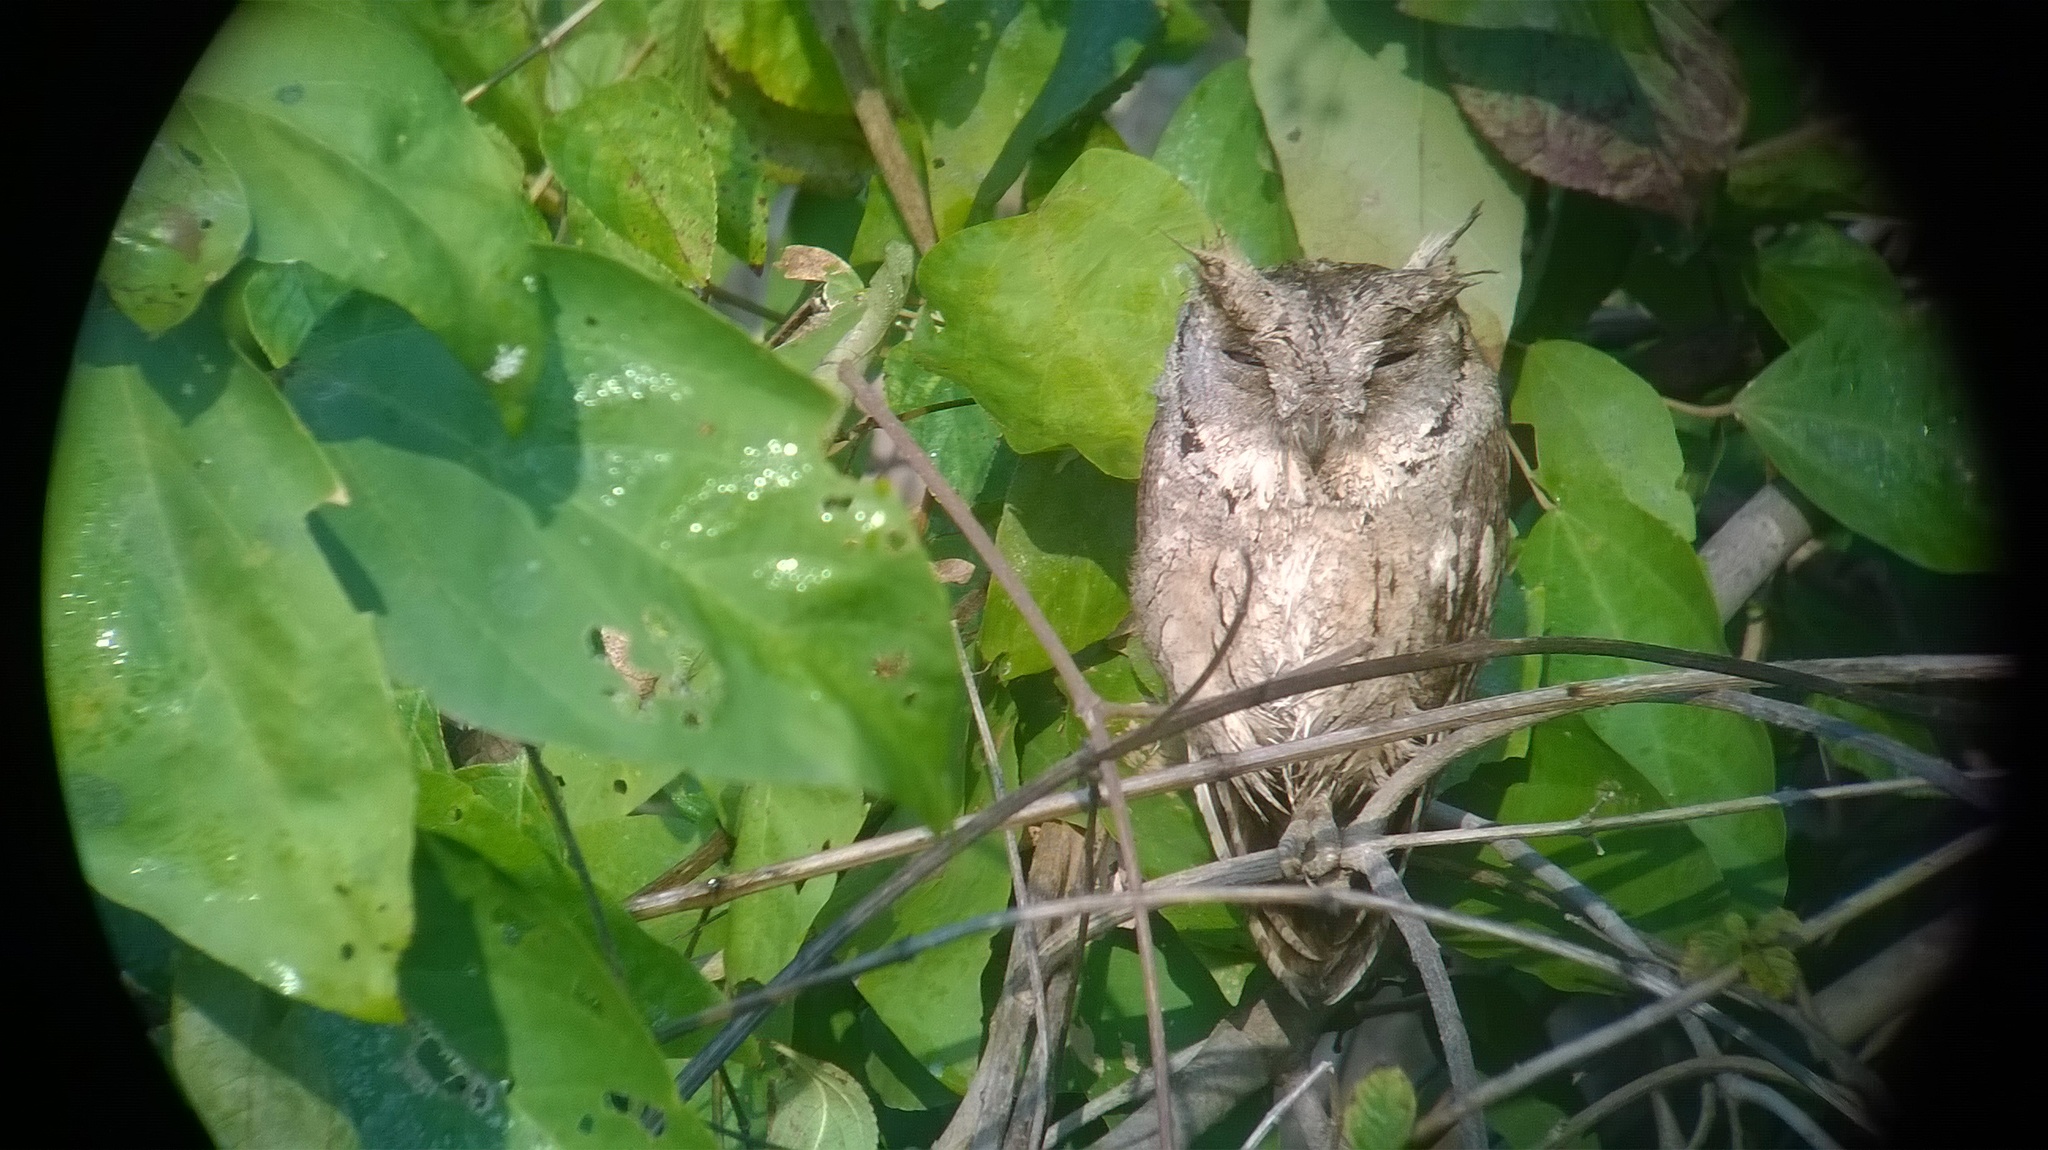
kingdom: Animalia
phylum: Chordata
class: Aves
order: Strigiformes
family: Strigidae
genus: Otus
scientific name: Otus lettia
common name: Collared scops owl
